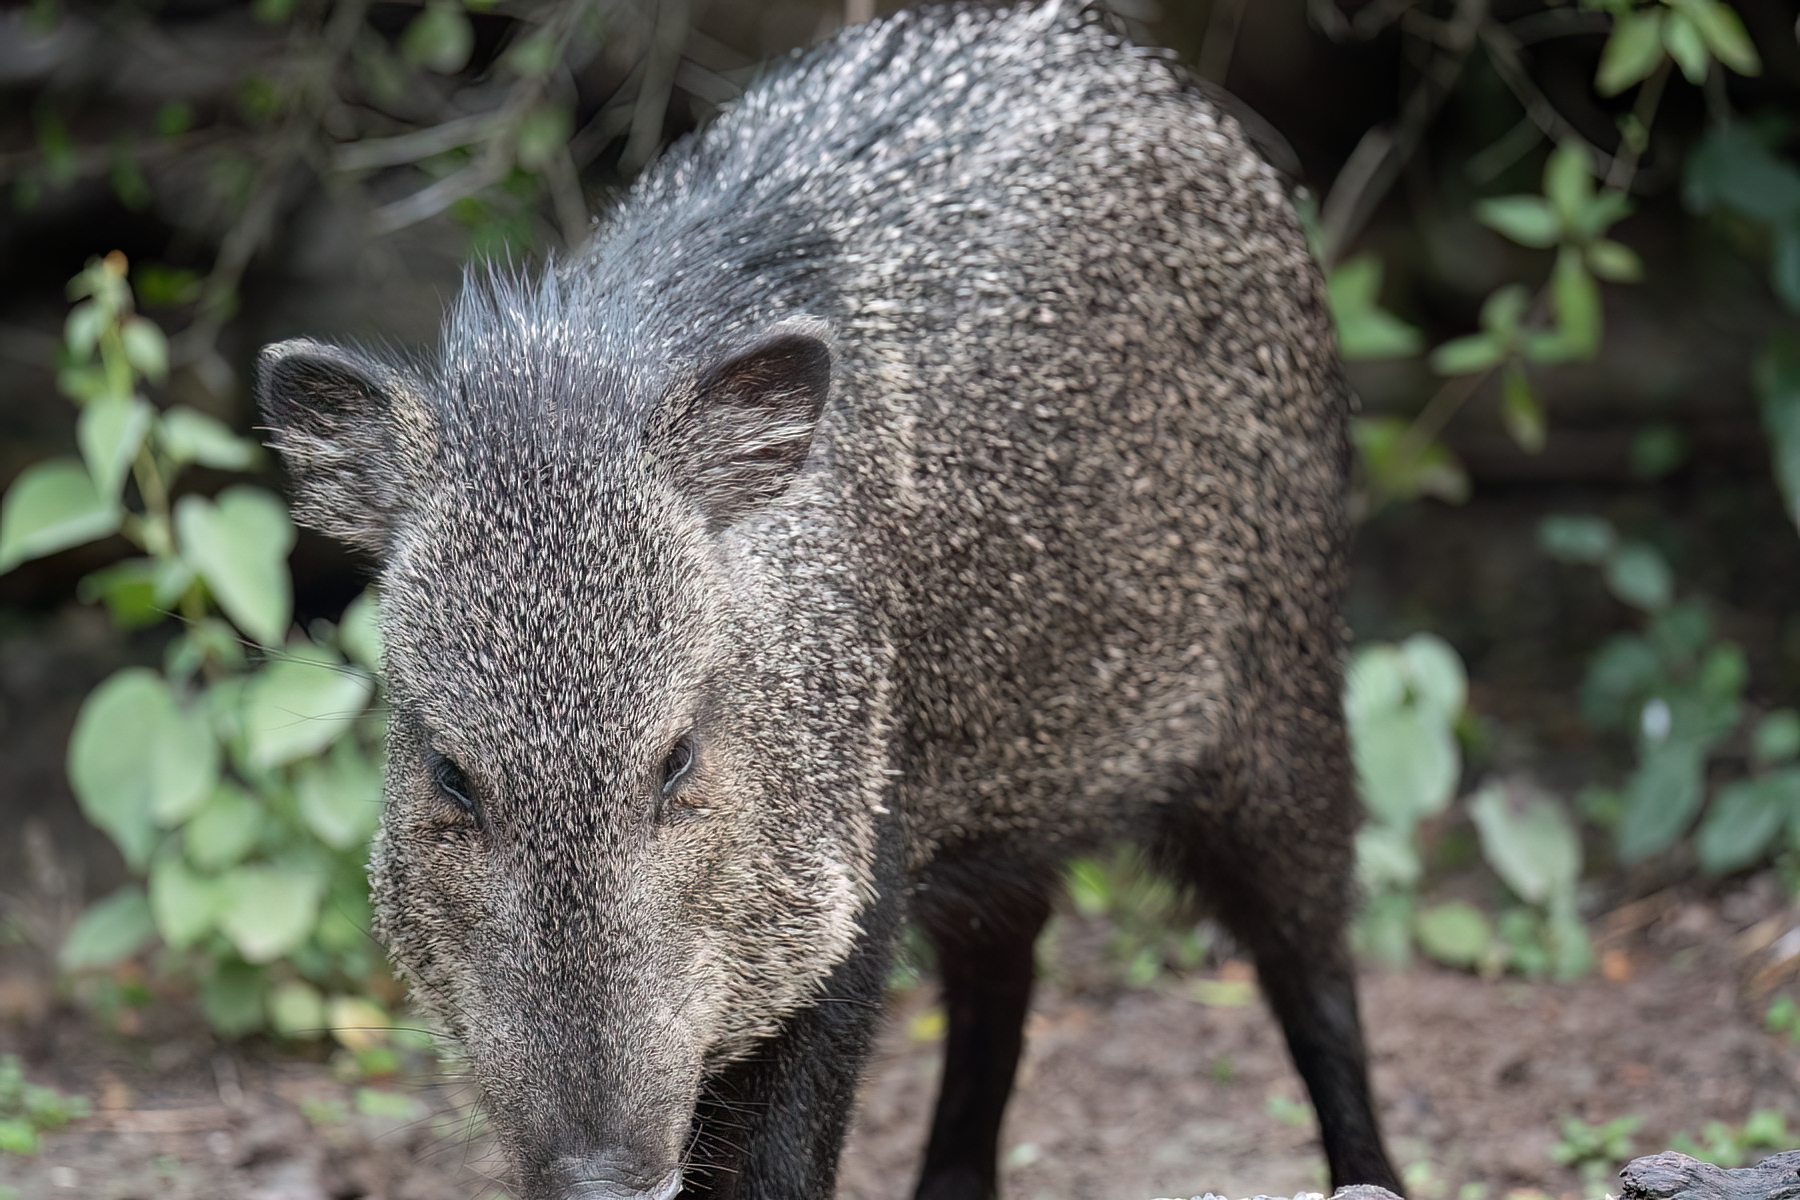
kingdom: Animalia
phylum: Chordata
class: Mammalia
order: Artiodactyla
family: Tayassuidae
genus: Pecari
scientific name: Pecari tajacu
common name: Collared peccary
